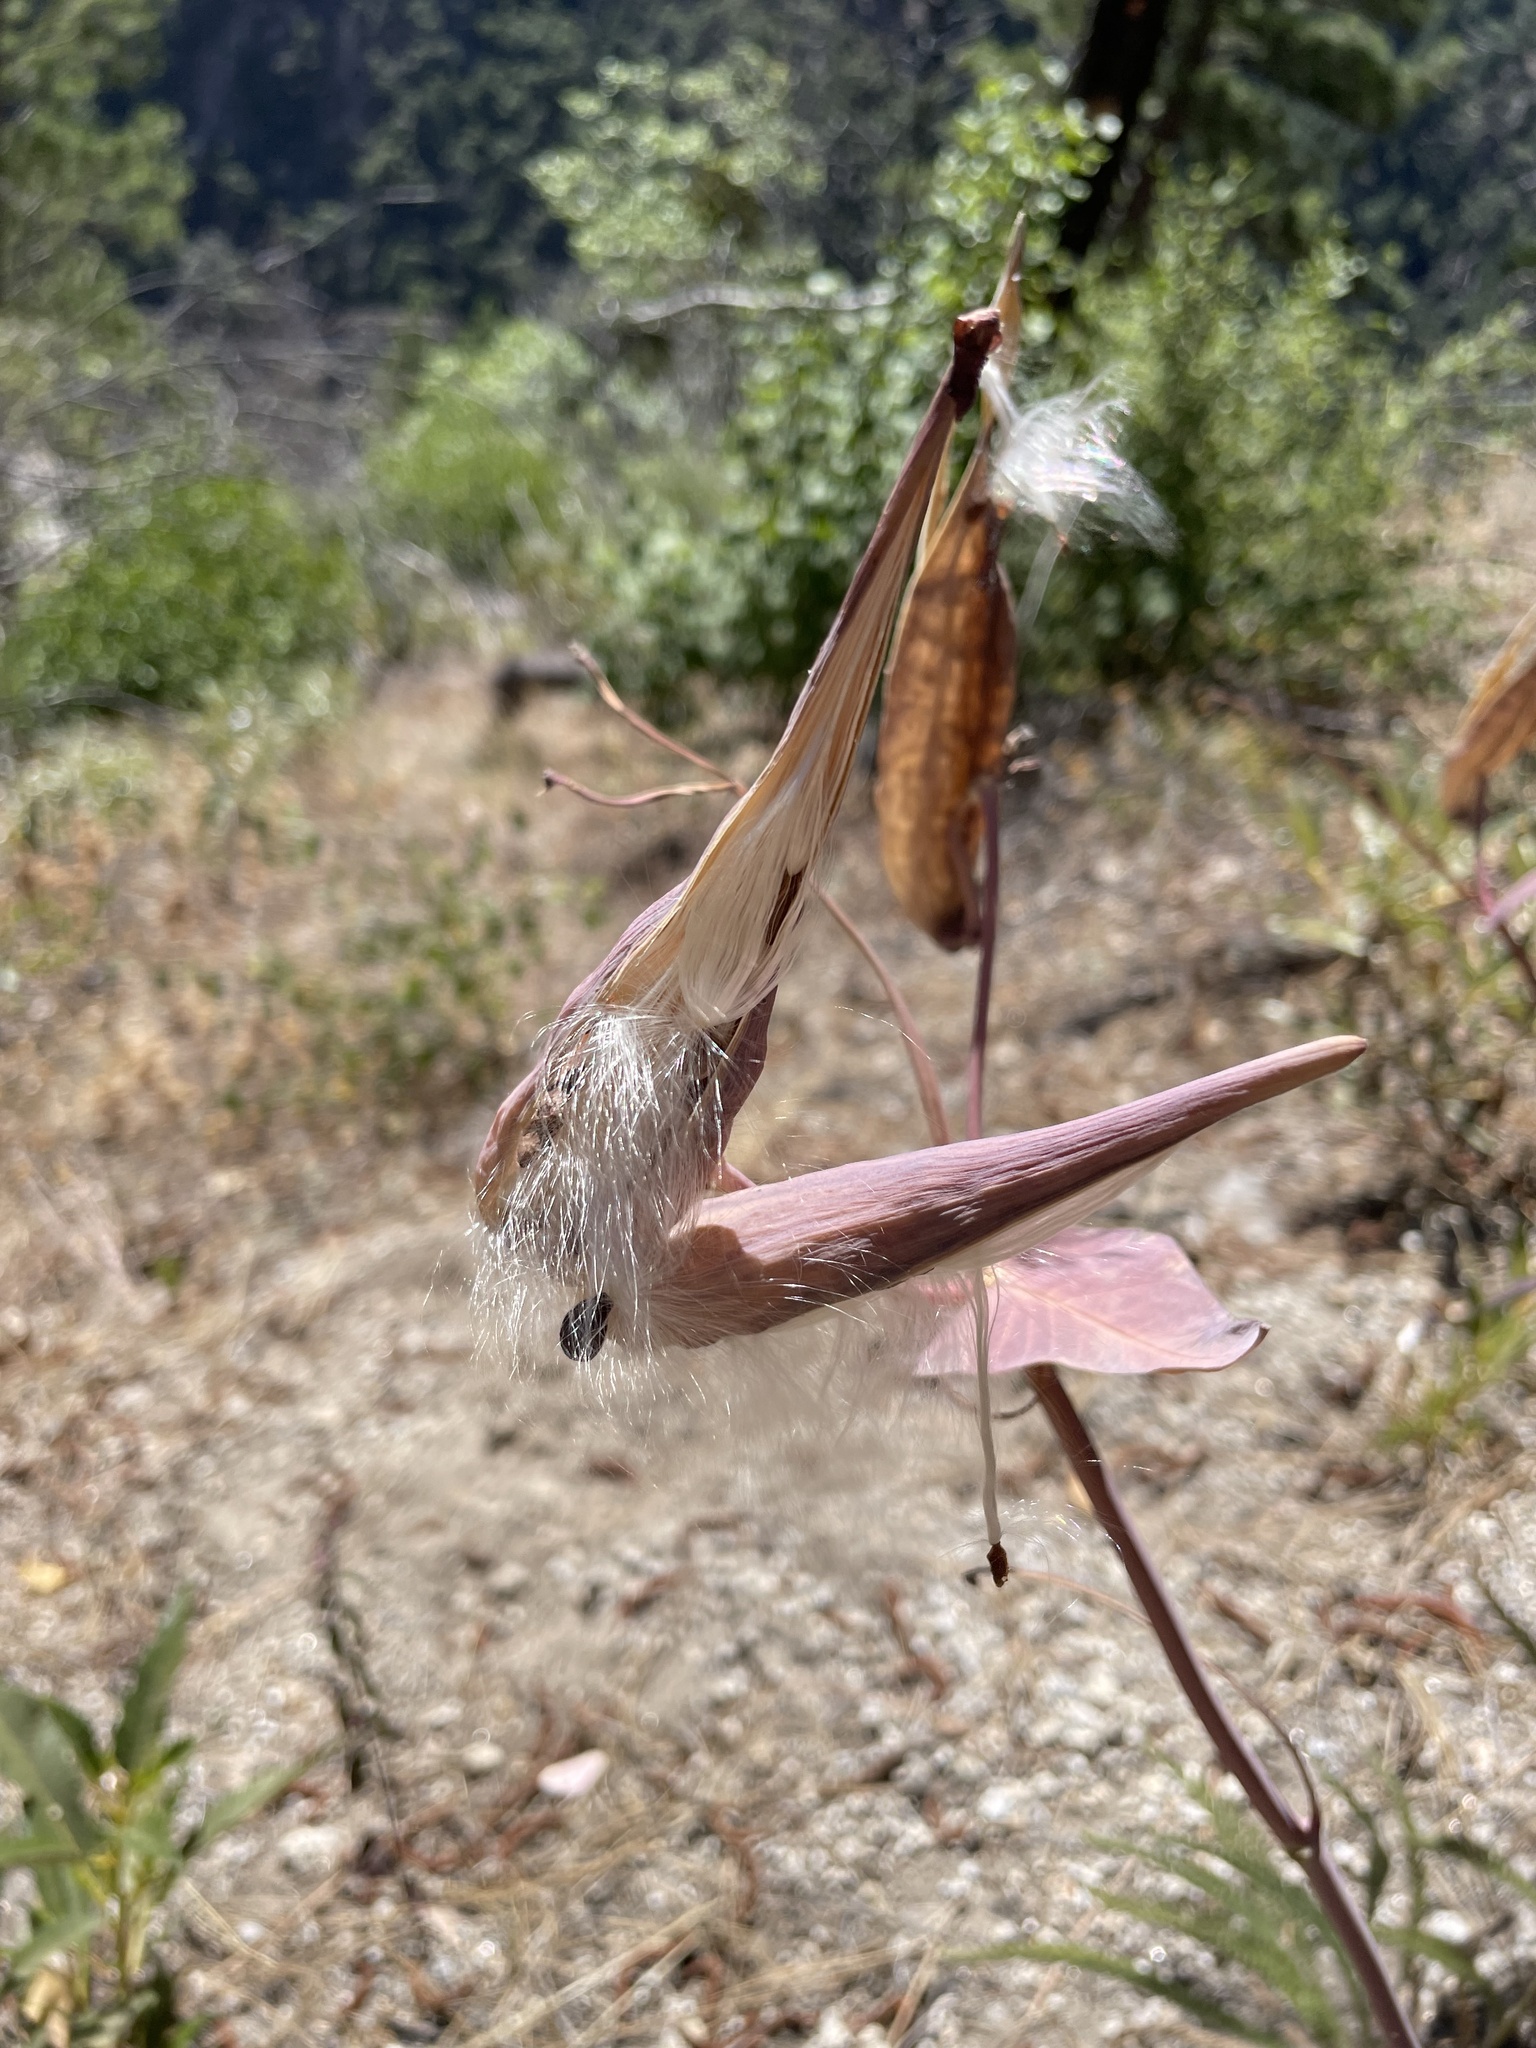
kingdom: Plantae
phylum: Tracheophyta
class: Magnoliopsida
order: Gentianales
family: Apocynaceae
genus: Asclepias
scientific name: Asclepias cordifolia
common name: Purple milkweed
